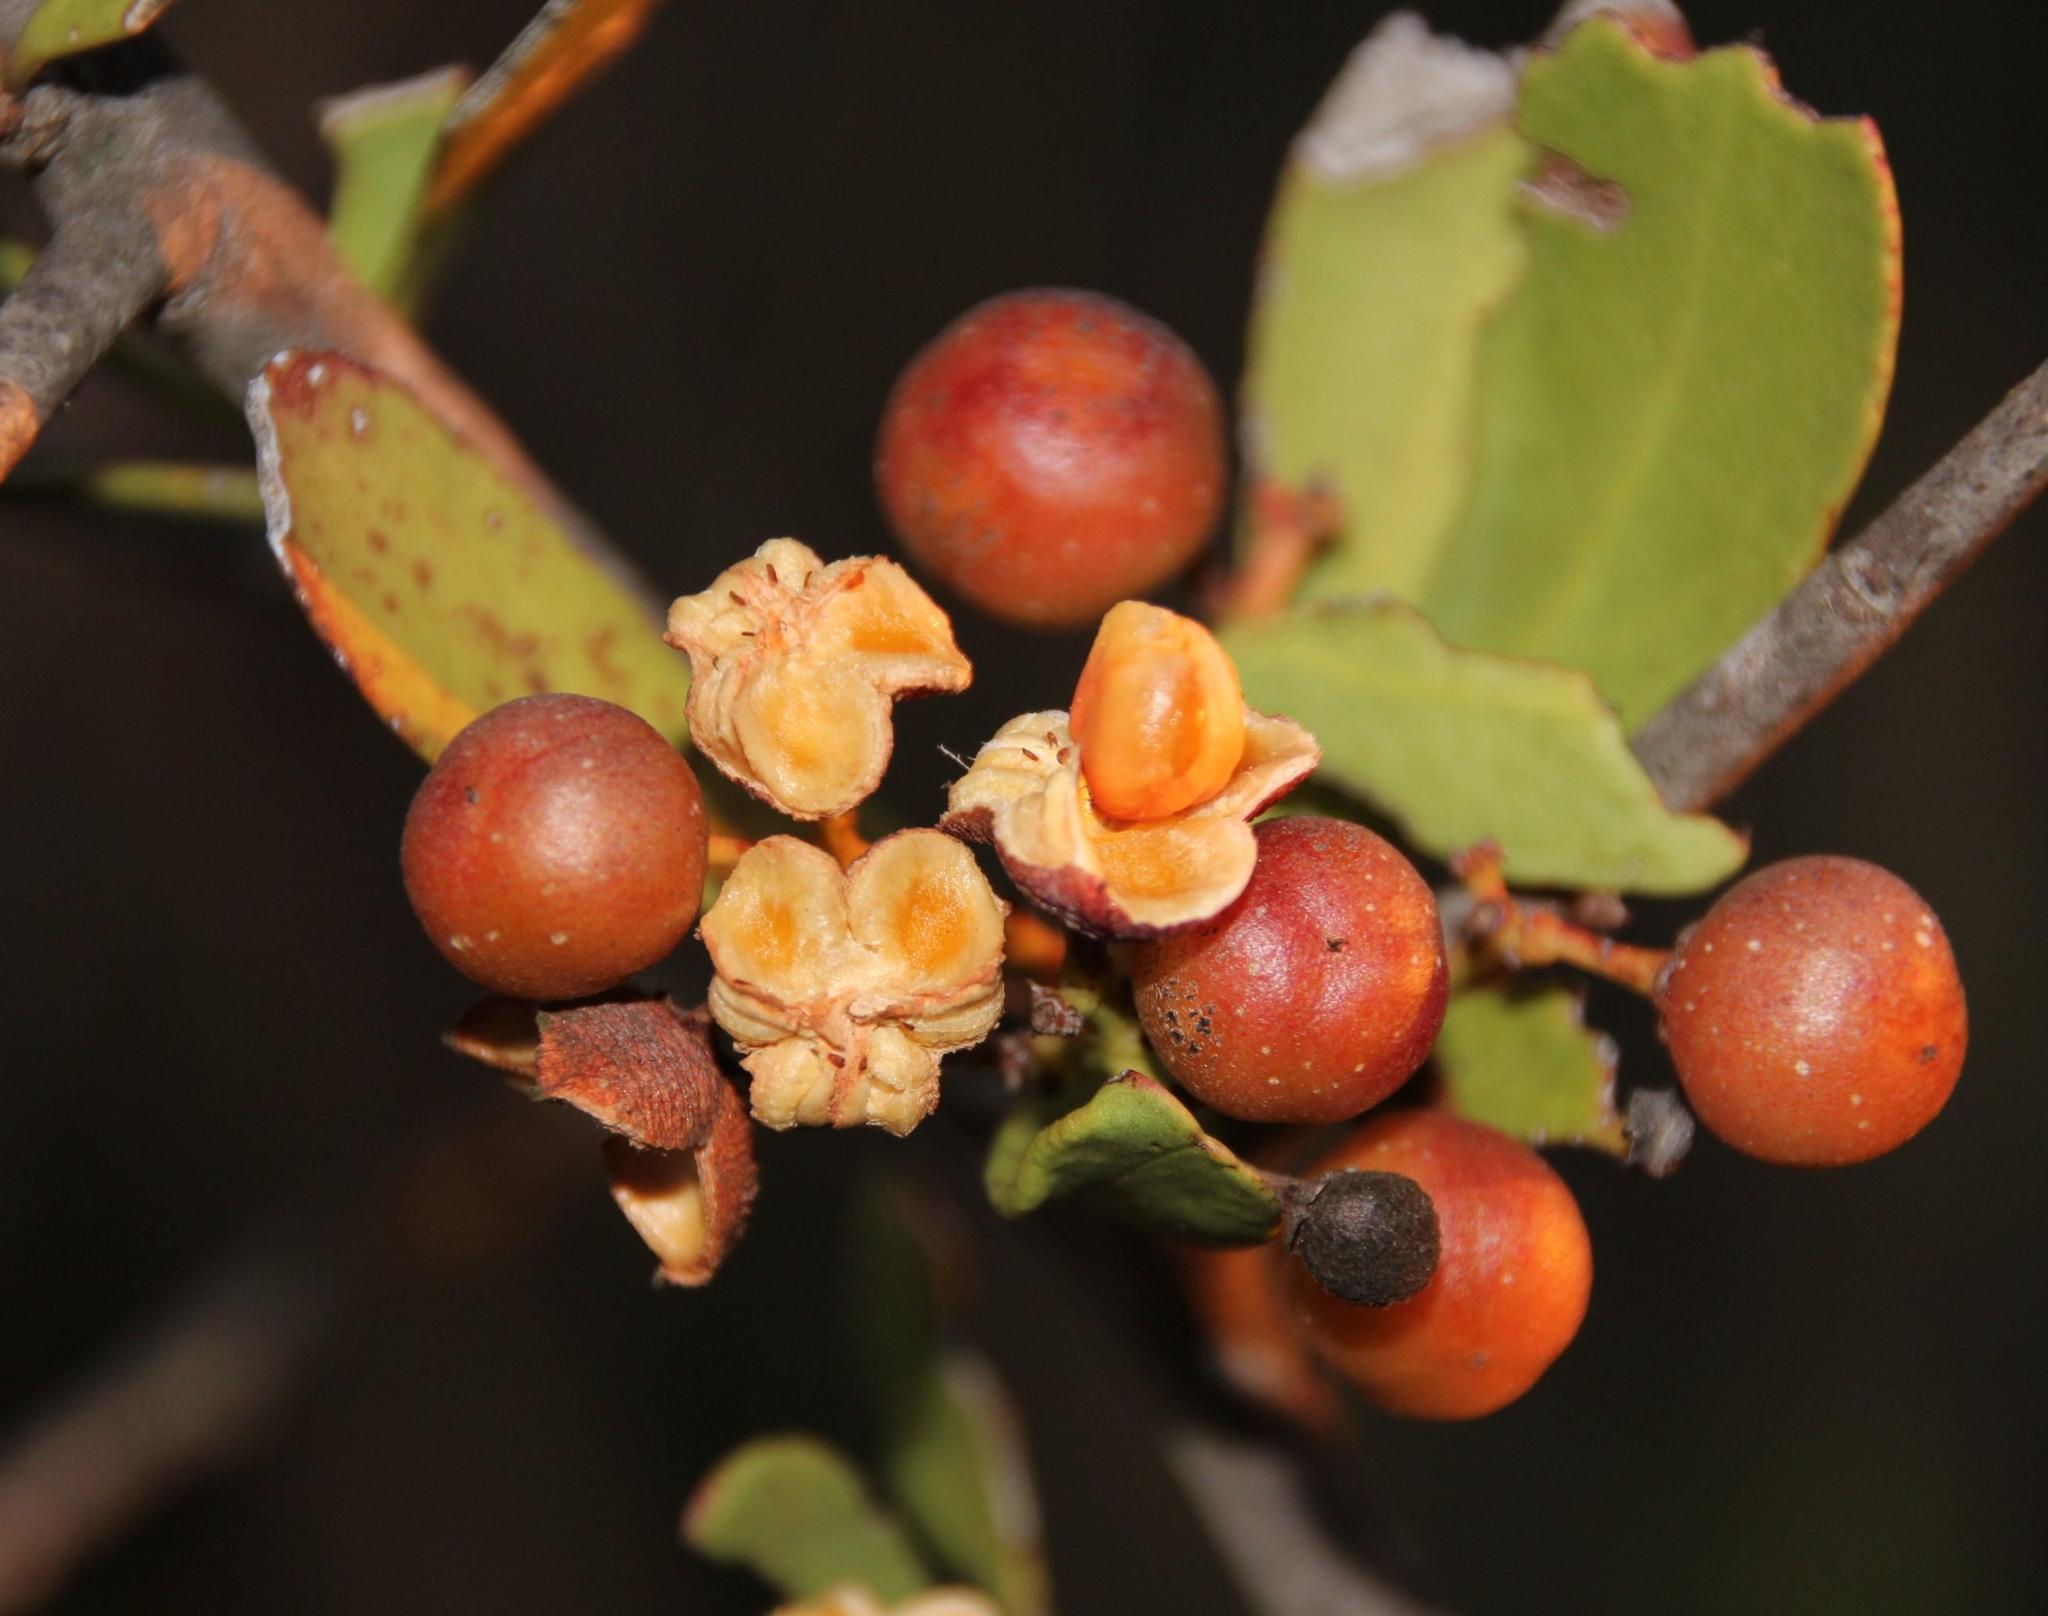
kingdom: Plantae
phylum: Tracheophyta
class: Magnoliopsida
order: Celastrales
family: Celastraceae
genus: Gymnosporia
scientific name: Gymnosporia buxifolia
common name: Common spike-thorn
